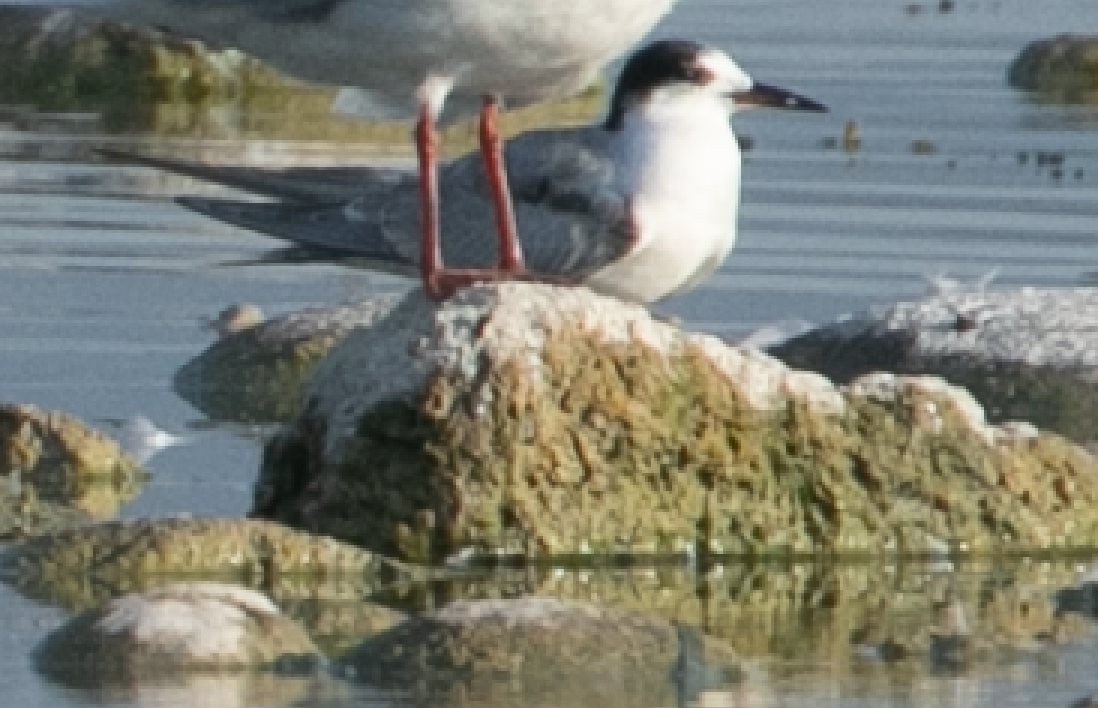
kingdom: Animalia
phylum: Chordata
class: Aves
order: Charadriiformes
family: Laridae
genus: Sterna
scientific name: Sterna hirundo
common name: Common tern
